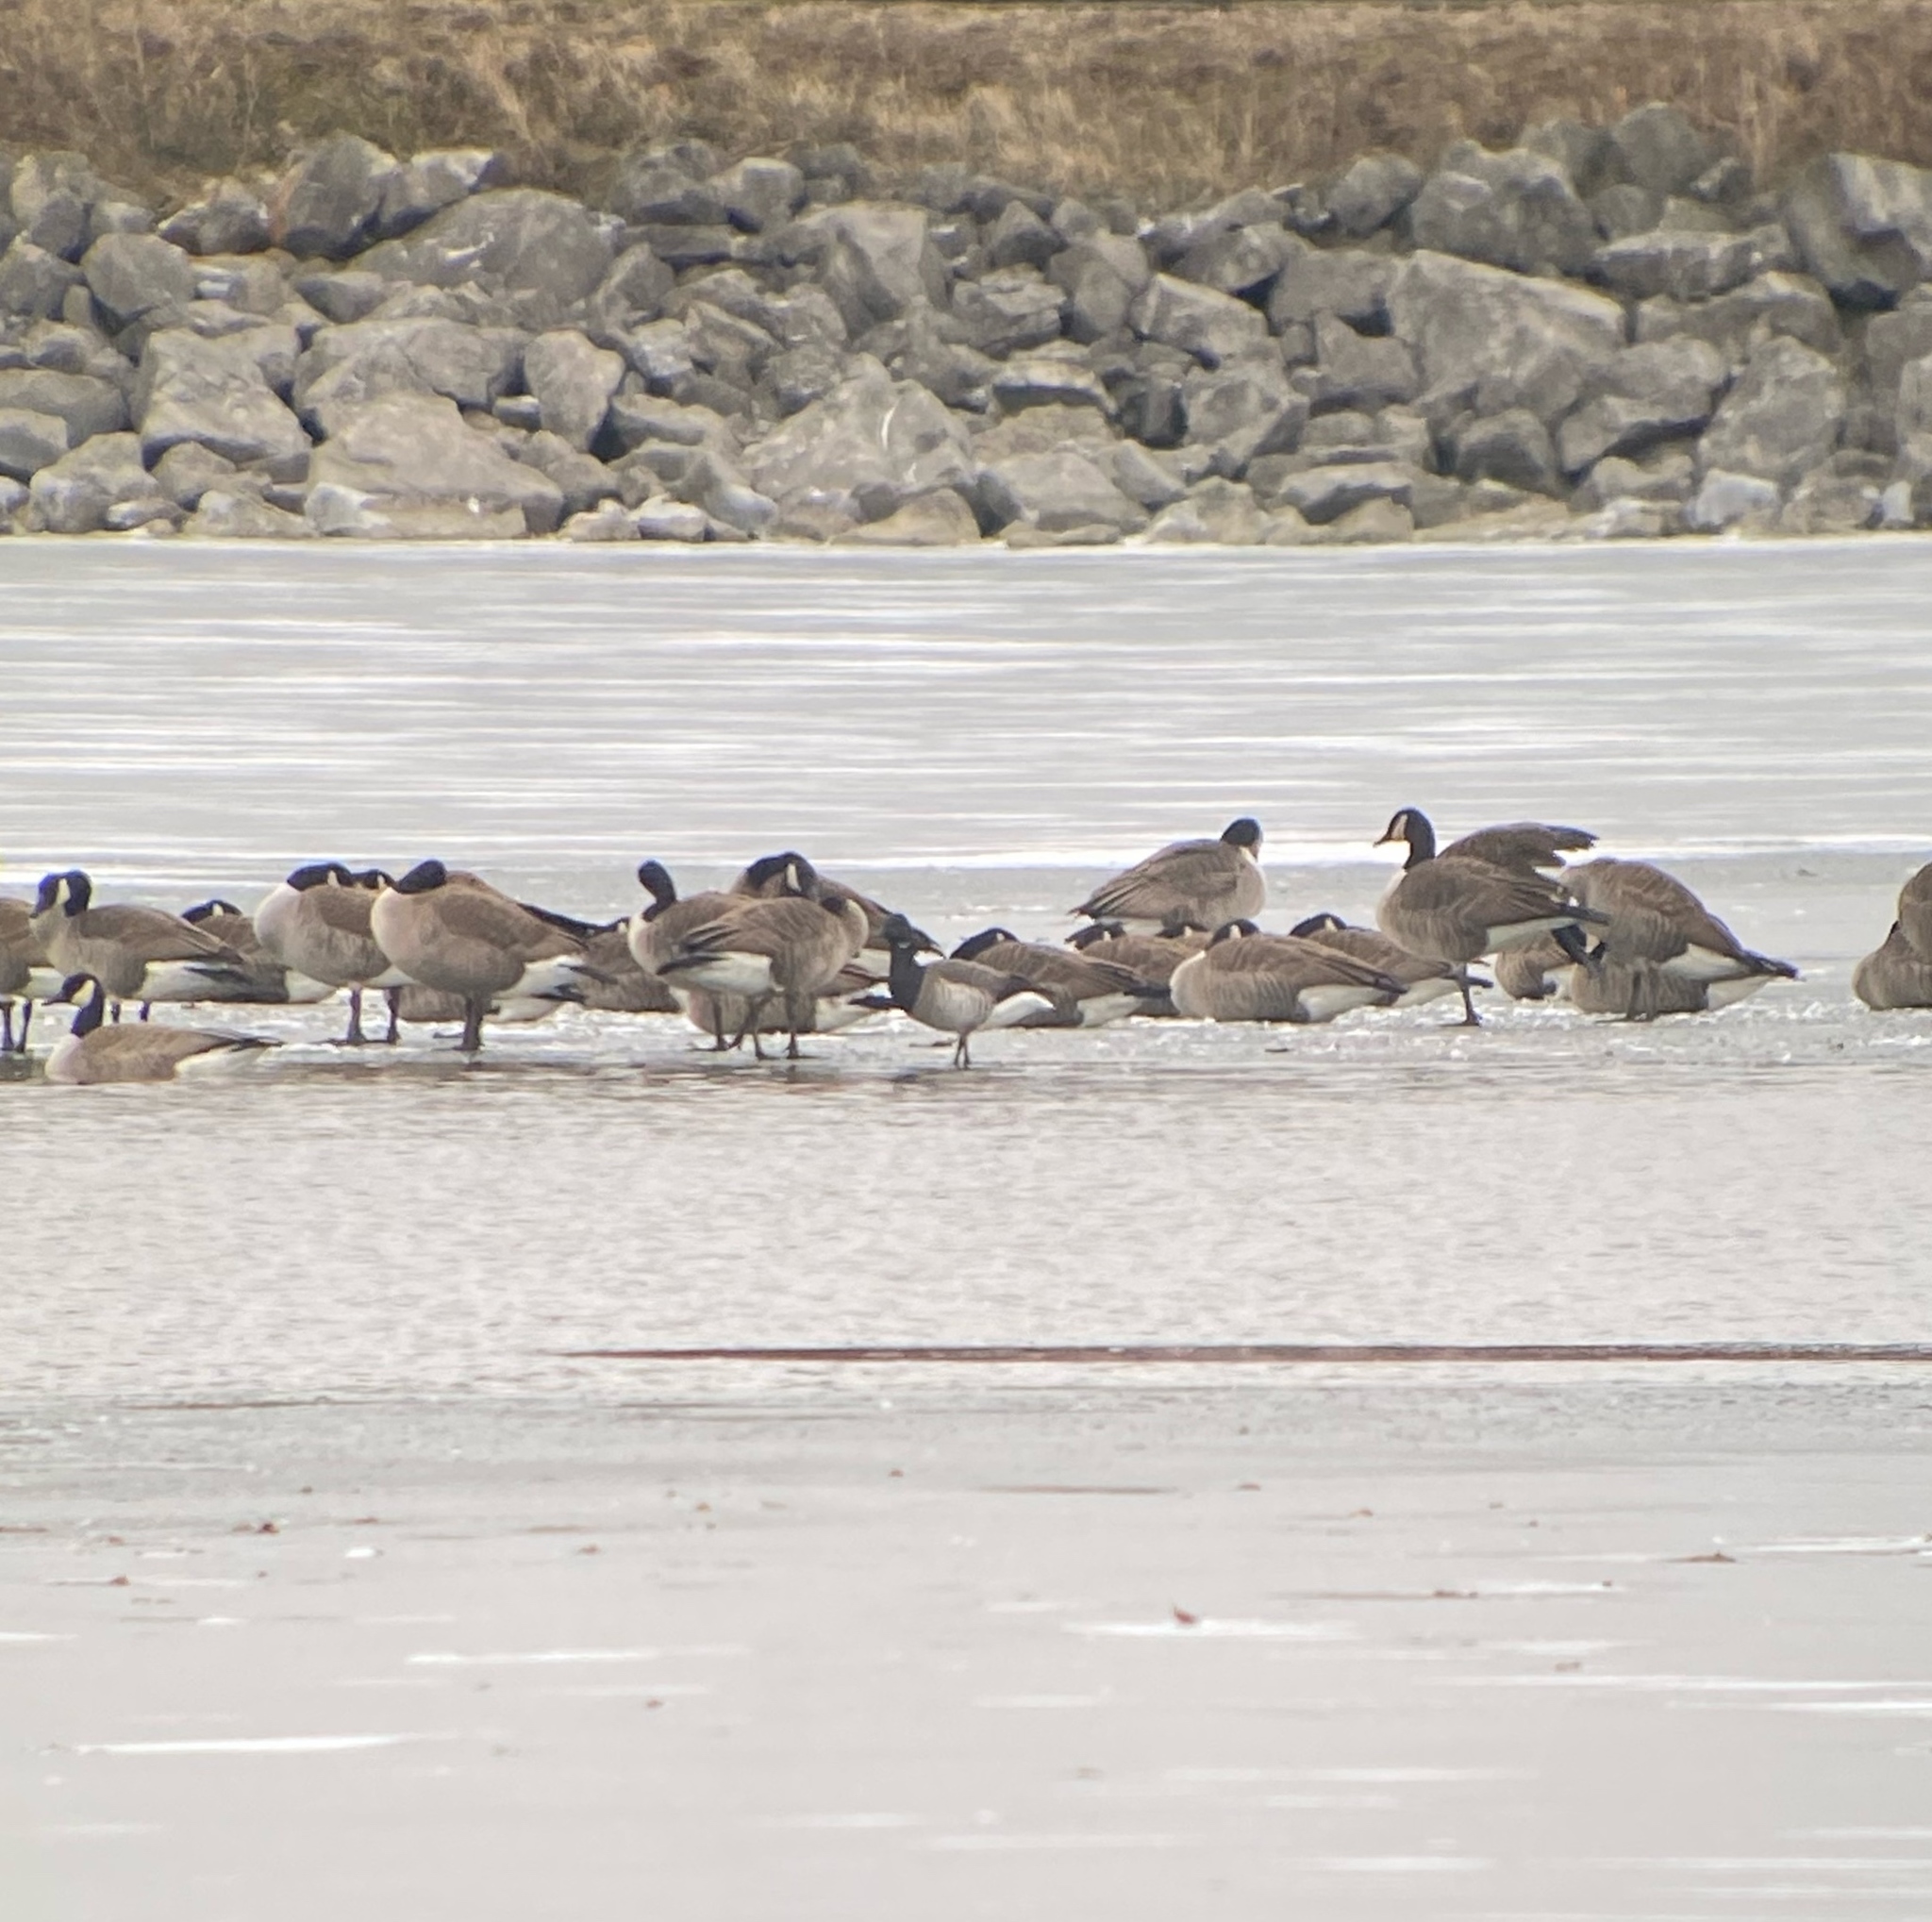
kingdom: Animalia
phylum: Chordata
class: Aves
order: Anseriformes
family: Anatidae
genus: Branta
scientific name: Branta bernicla
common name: Brant goose
